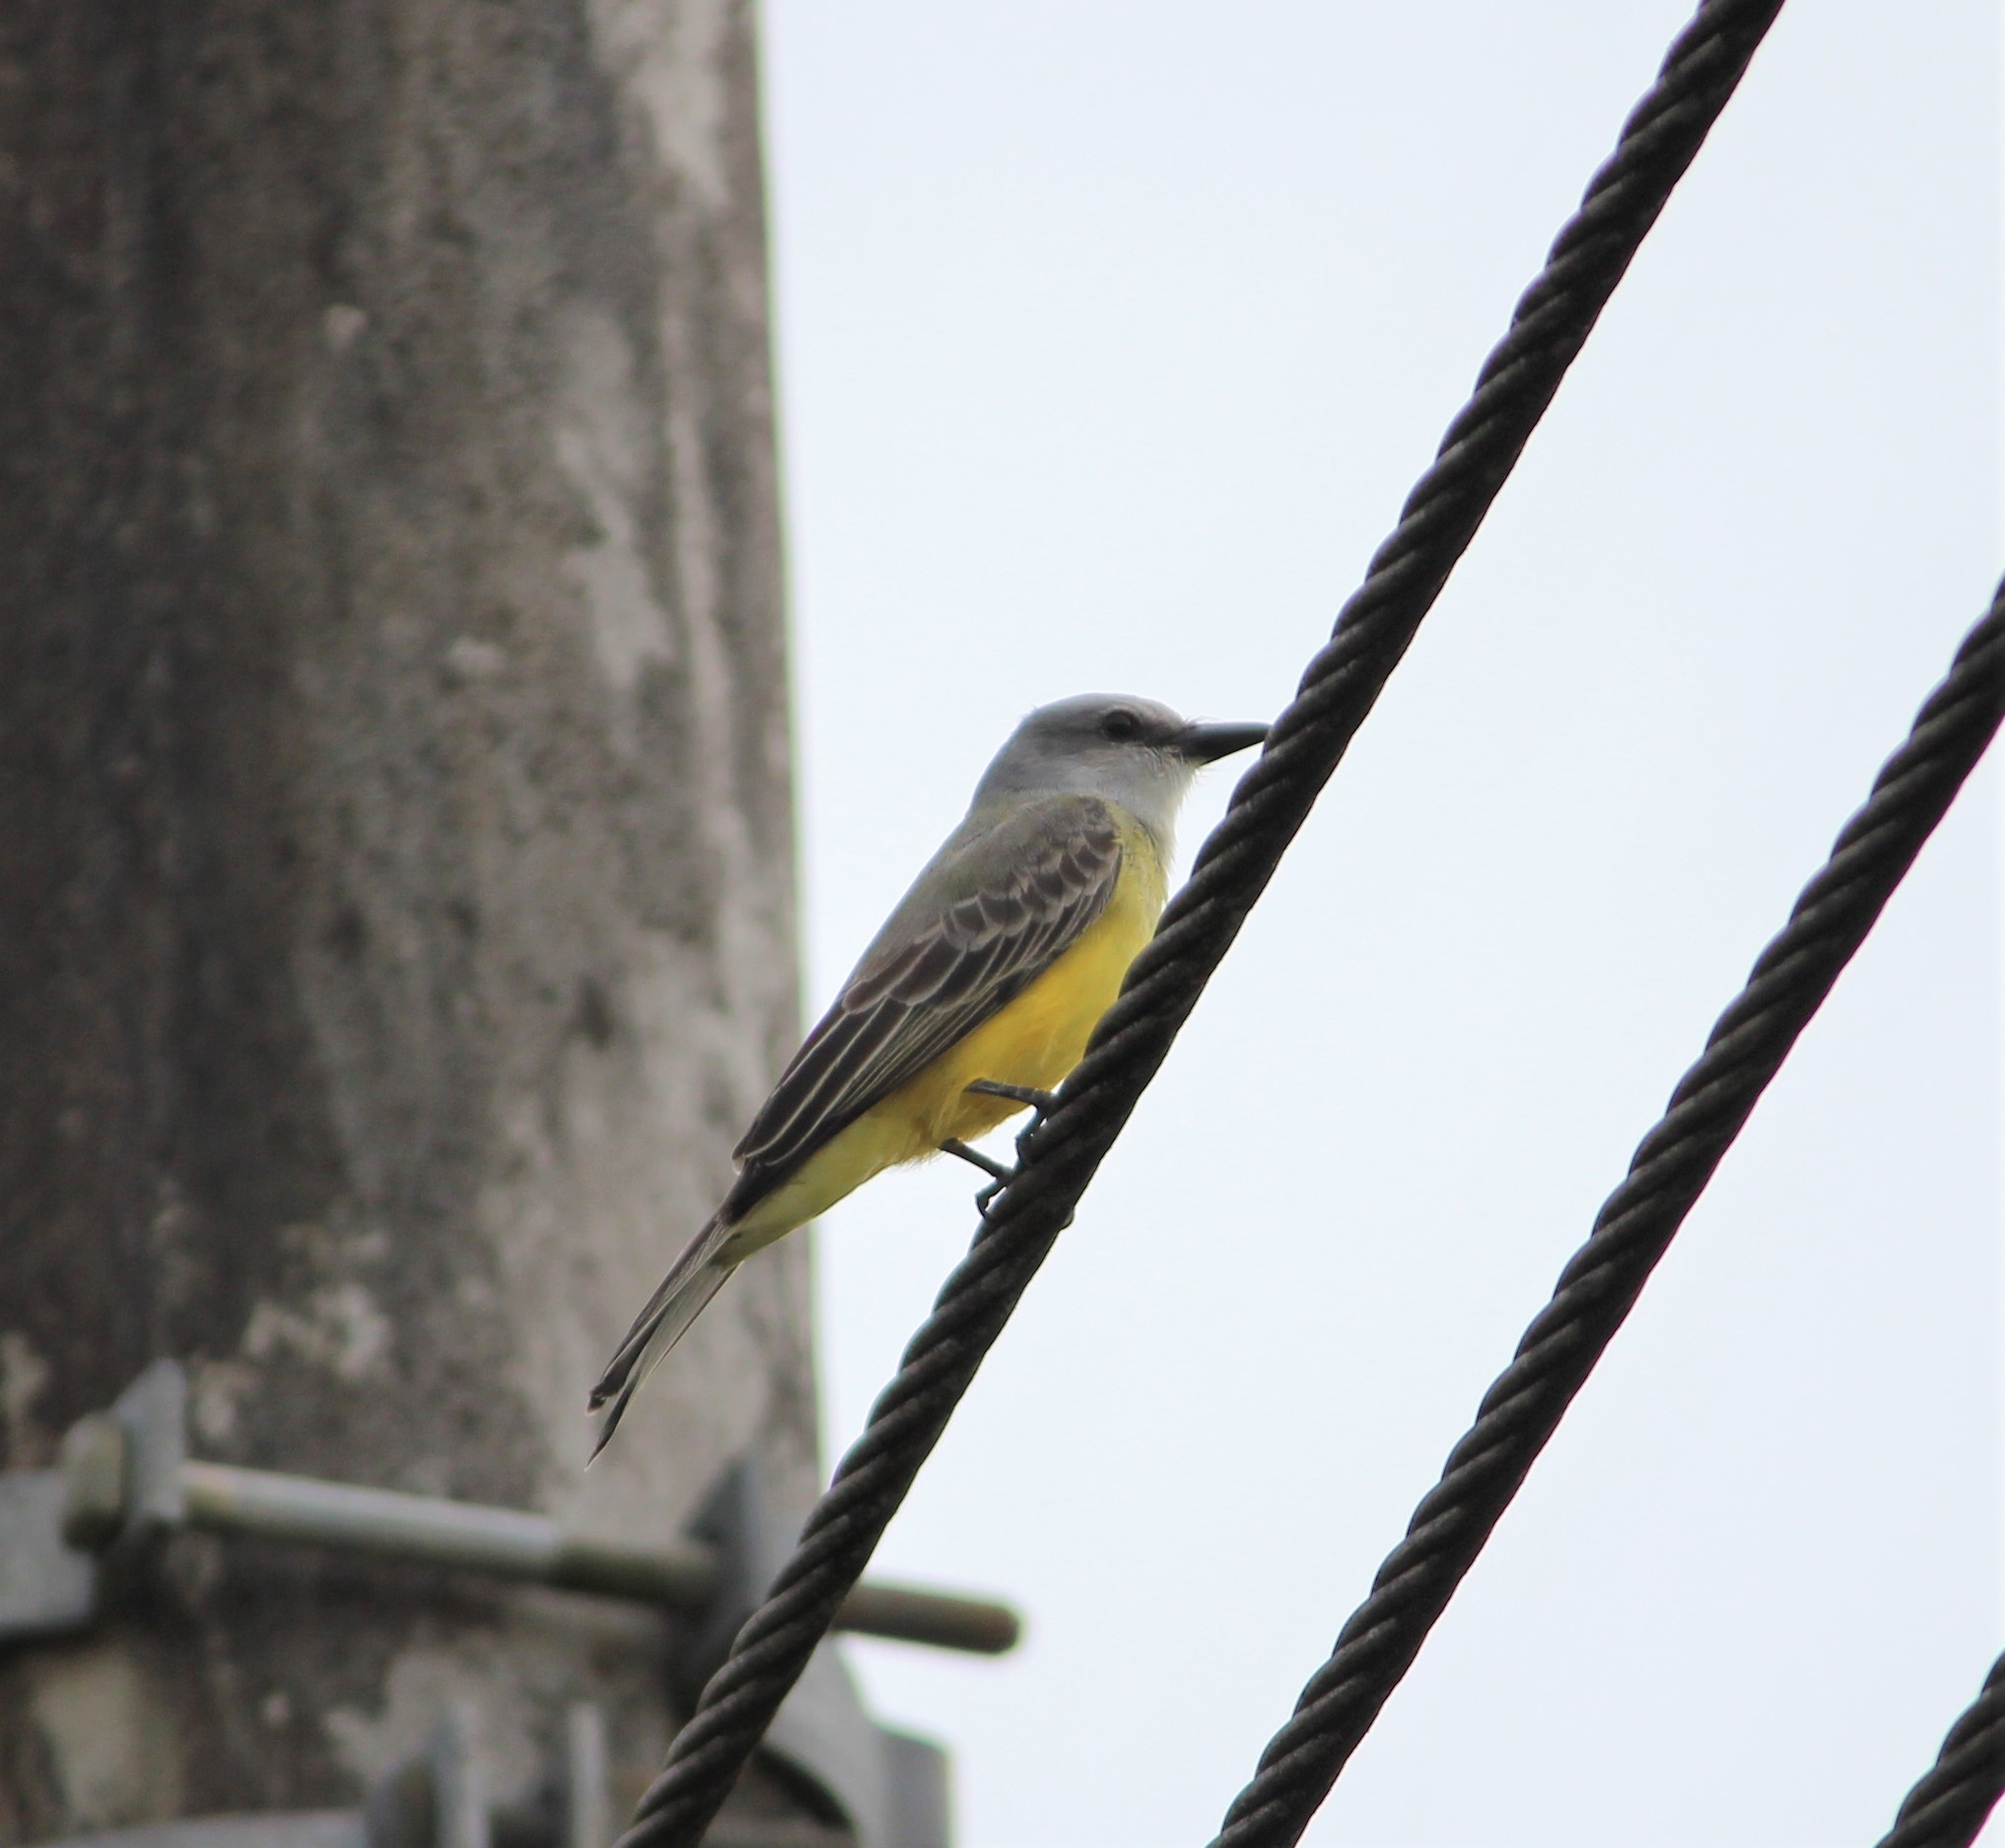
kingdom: Animalia
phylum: Chordata
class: Aves
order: Passeriformes
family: Tyrannidae
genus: Tyrannus
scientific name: Tyrannus melancholicus
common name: Tropical kingbird
